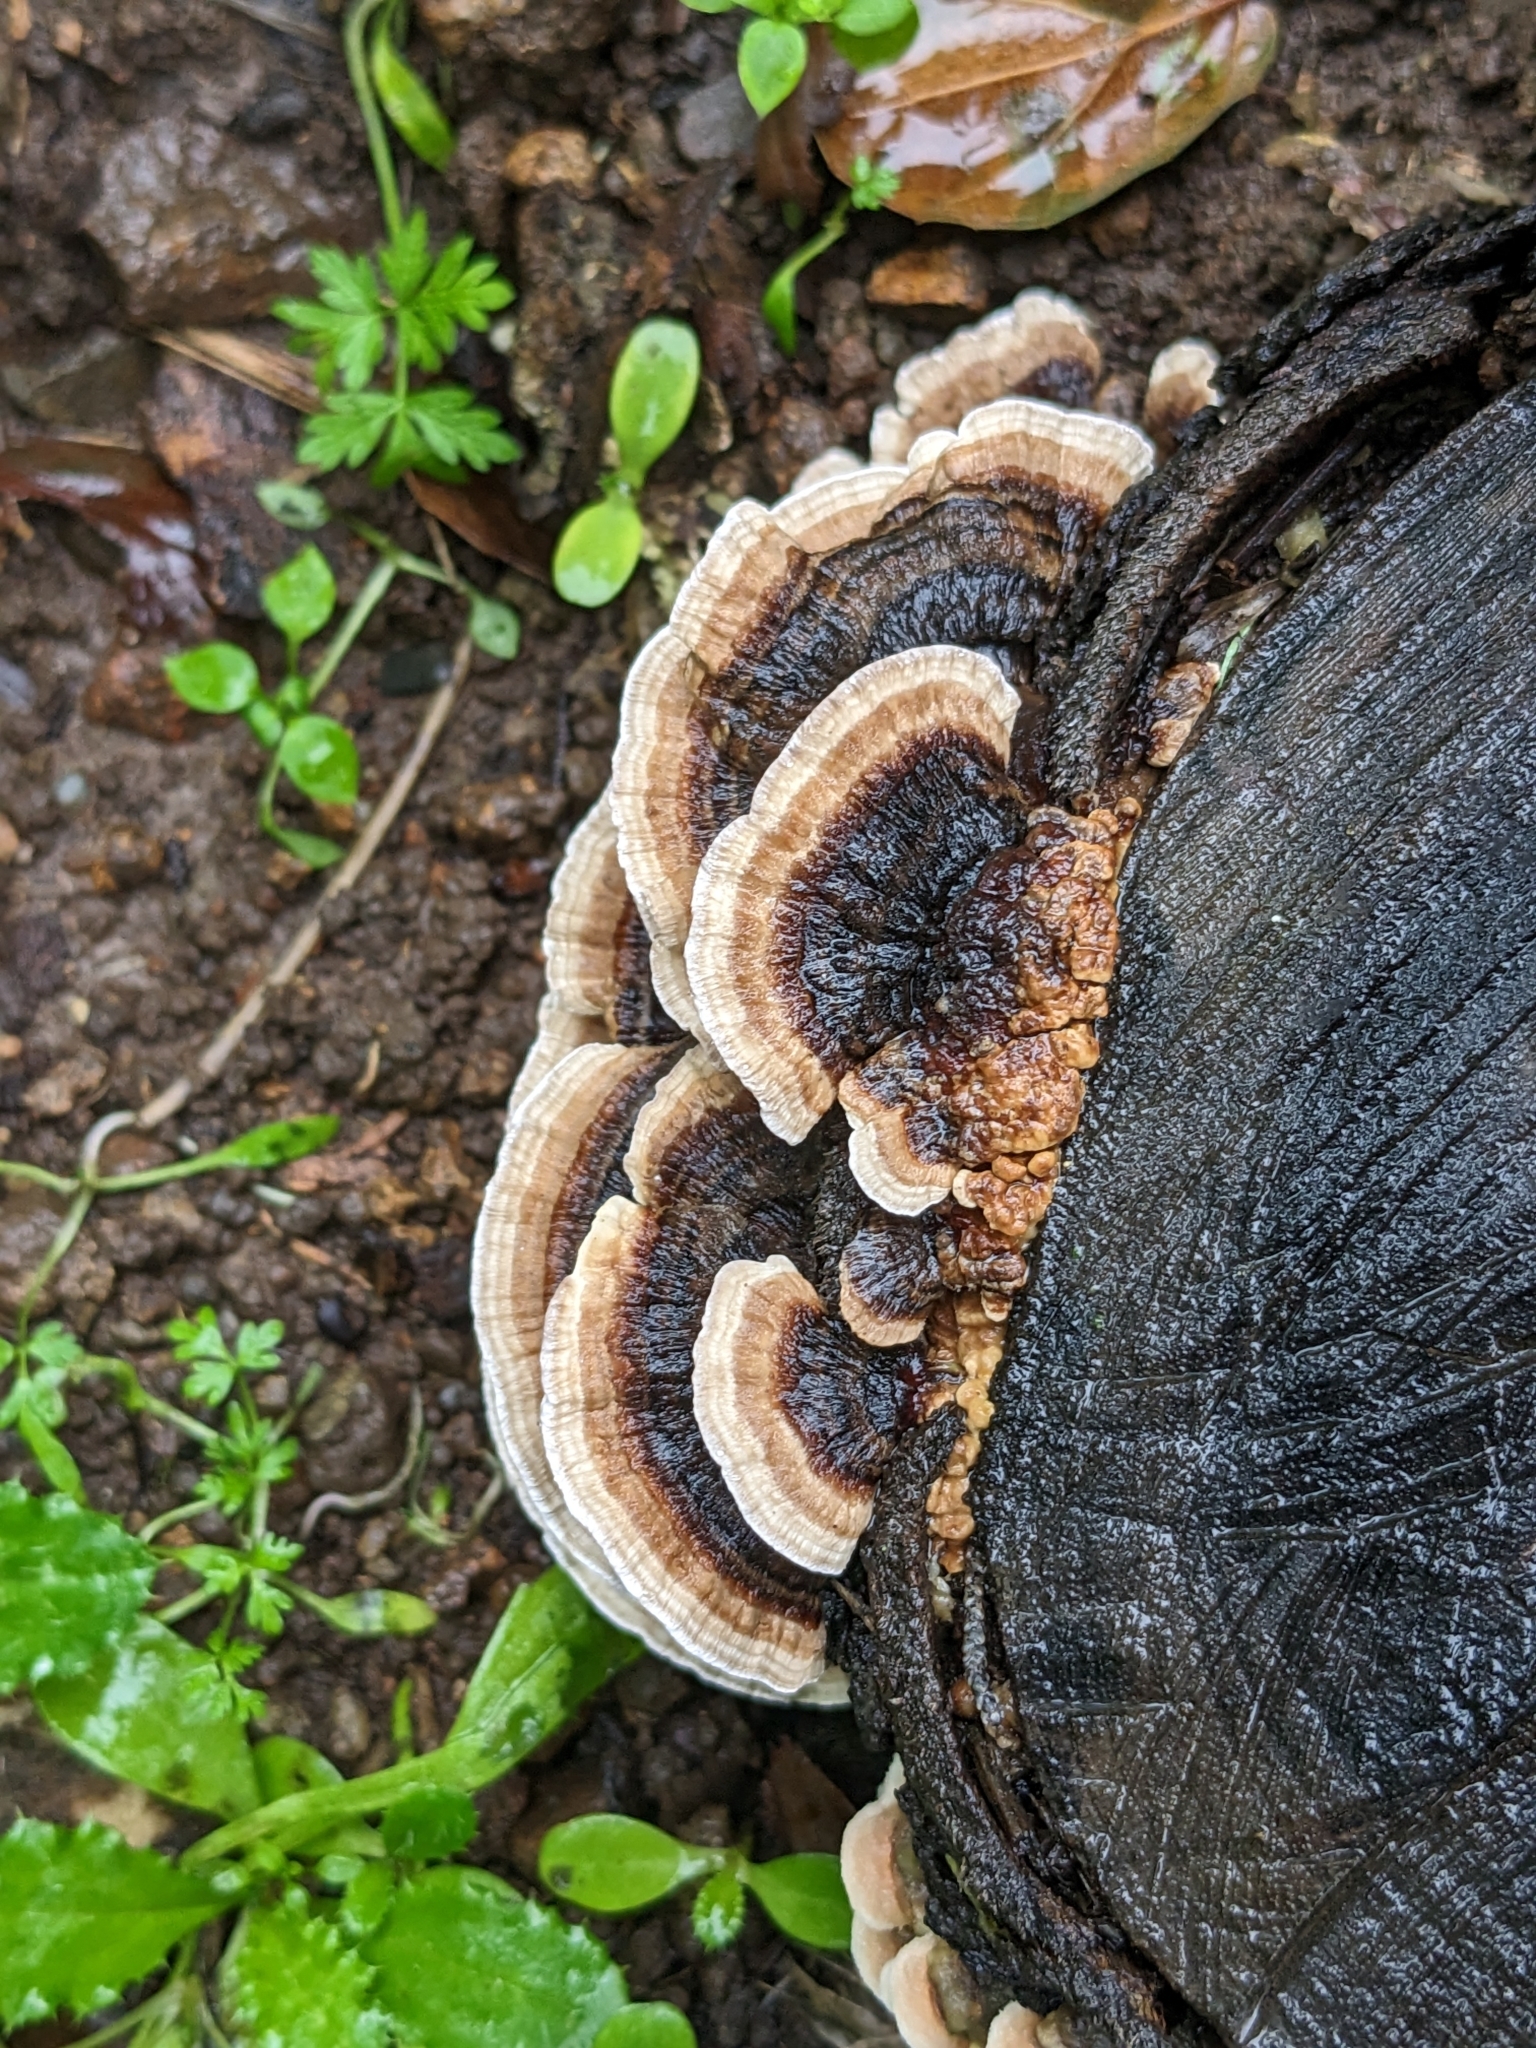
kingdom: Fungi
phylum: Basidiomycota
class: Agaricomycetes
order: Polyporales
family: Polyporaceae
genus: Trametes
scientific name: Trametes versicolor
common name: Turkeytail
